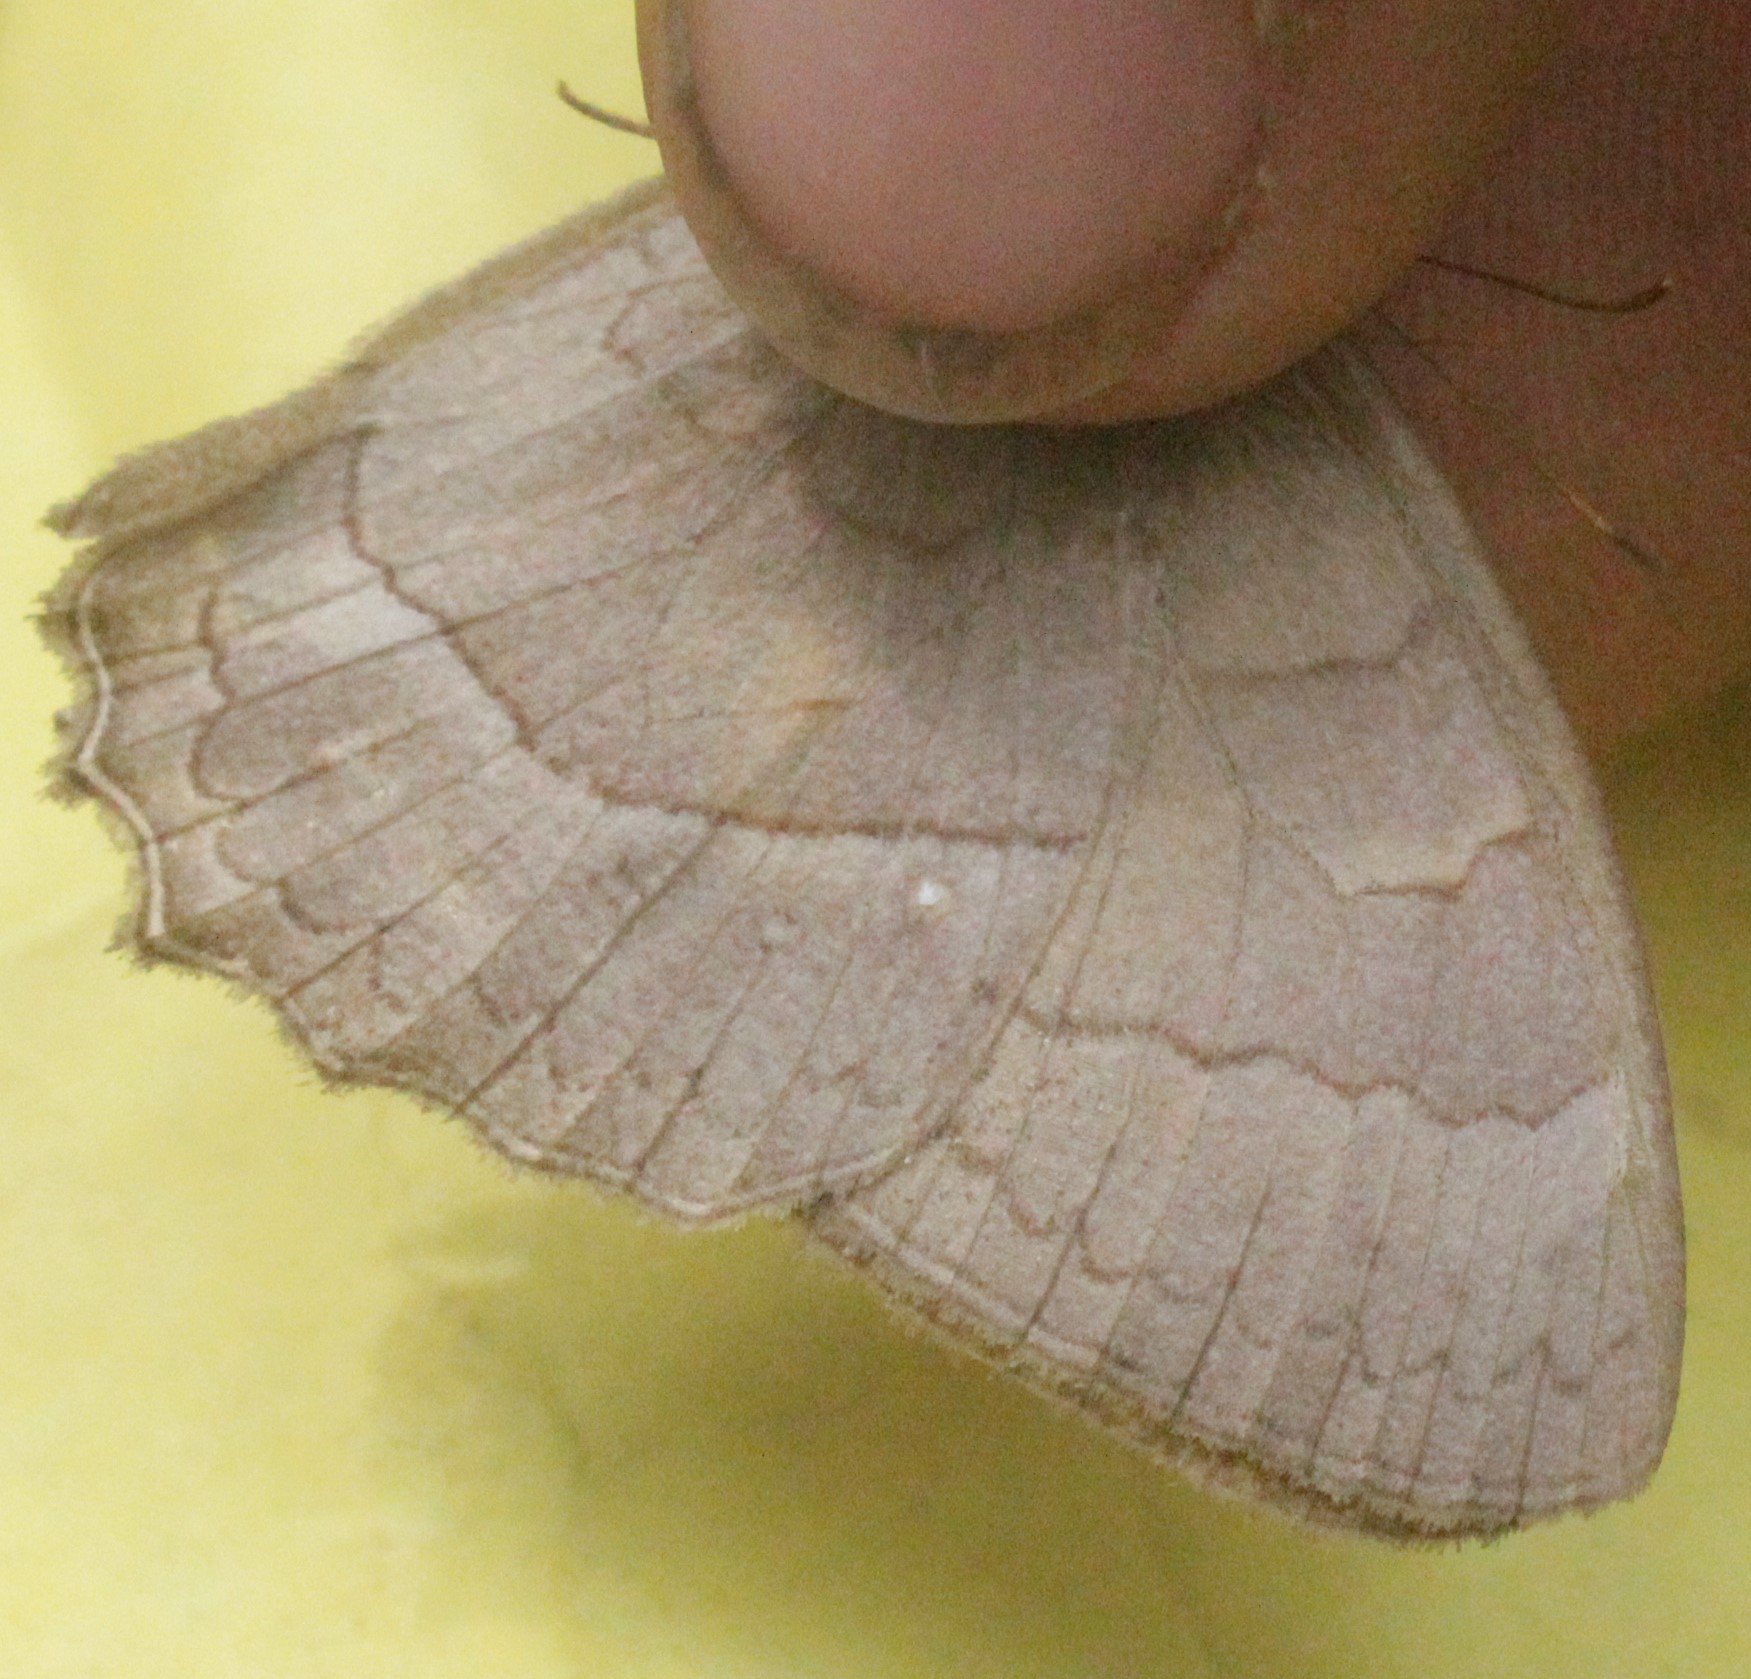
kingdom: Animalia
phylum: Arthropoda
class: Insecta
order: Lepidoptera
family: Nymphalidae
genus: Taygetina
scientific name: Taygetina kerea
